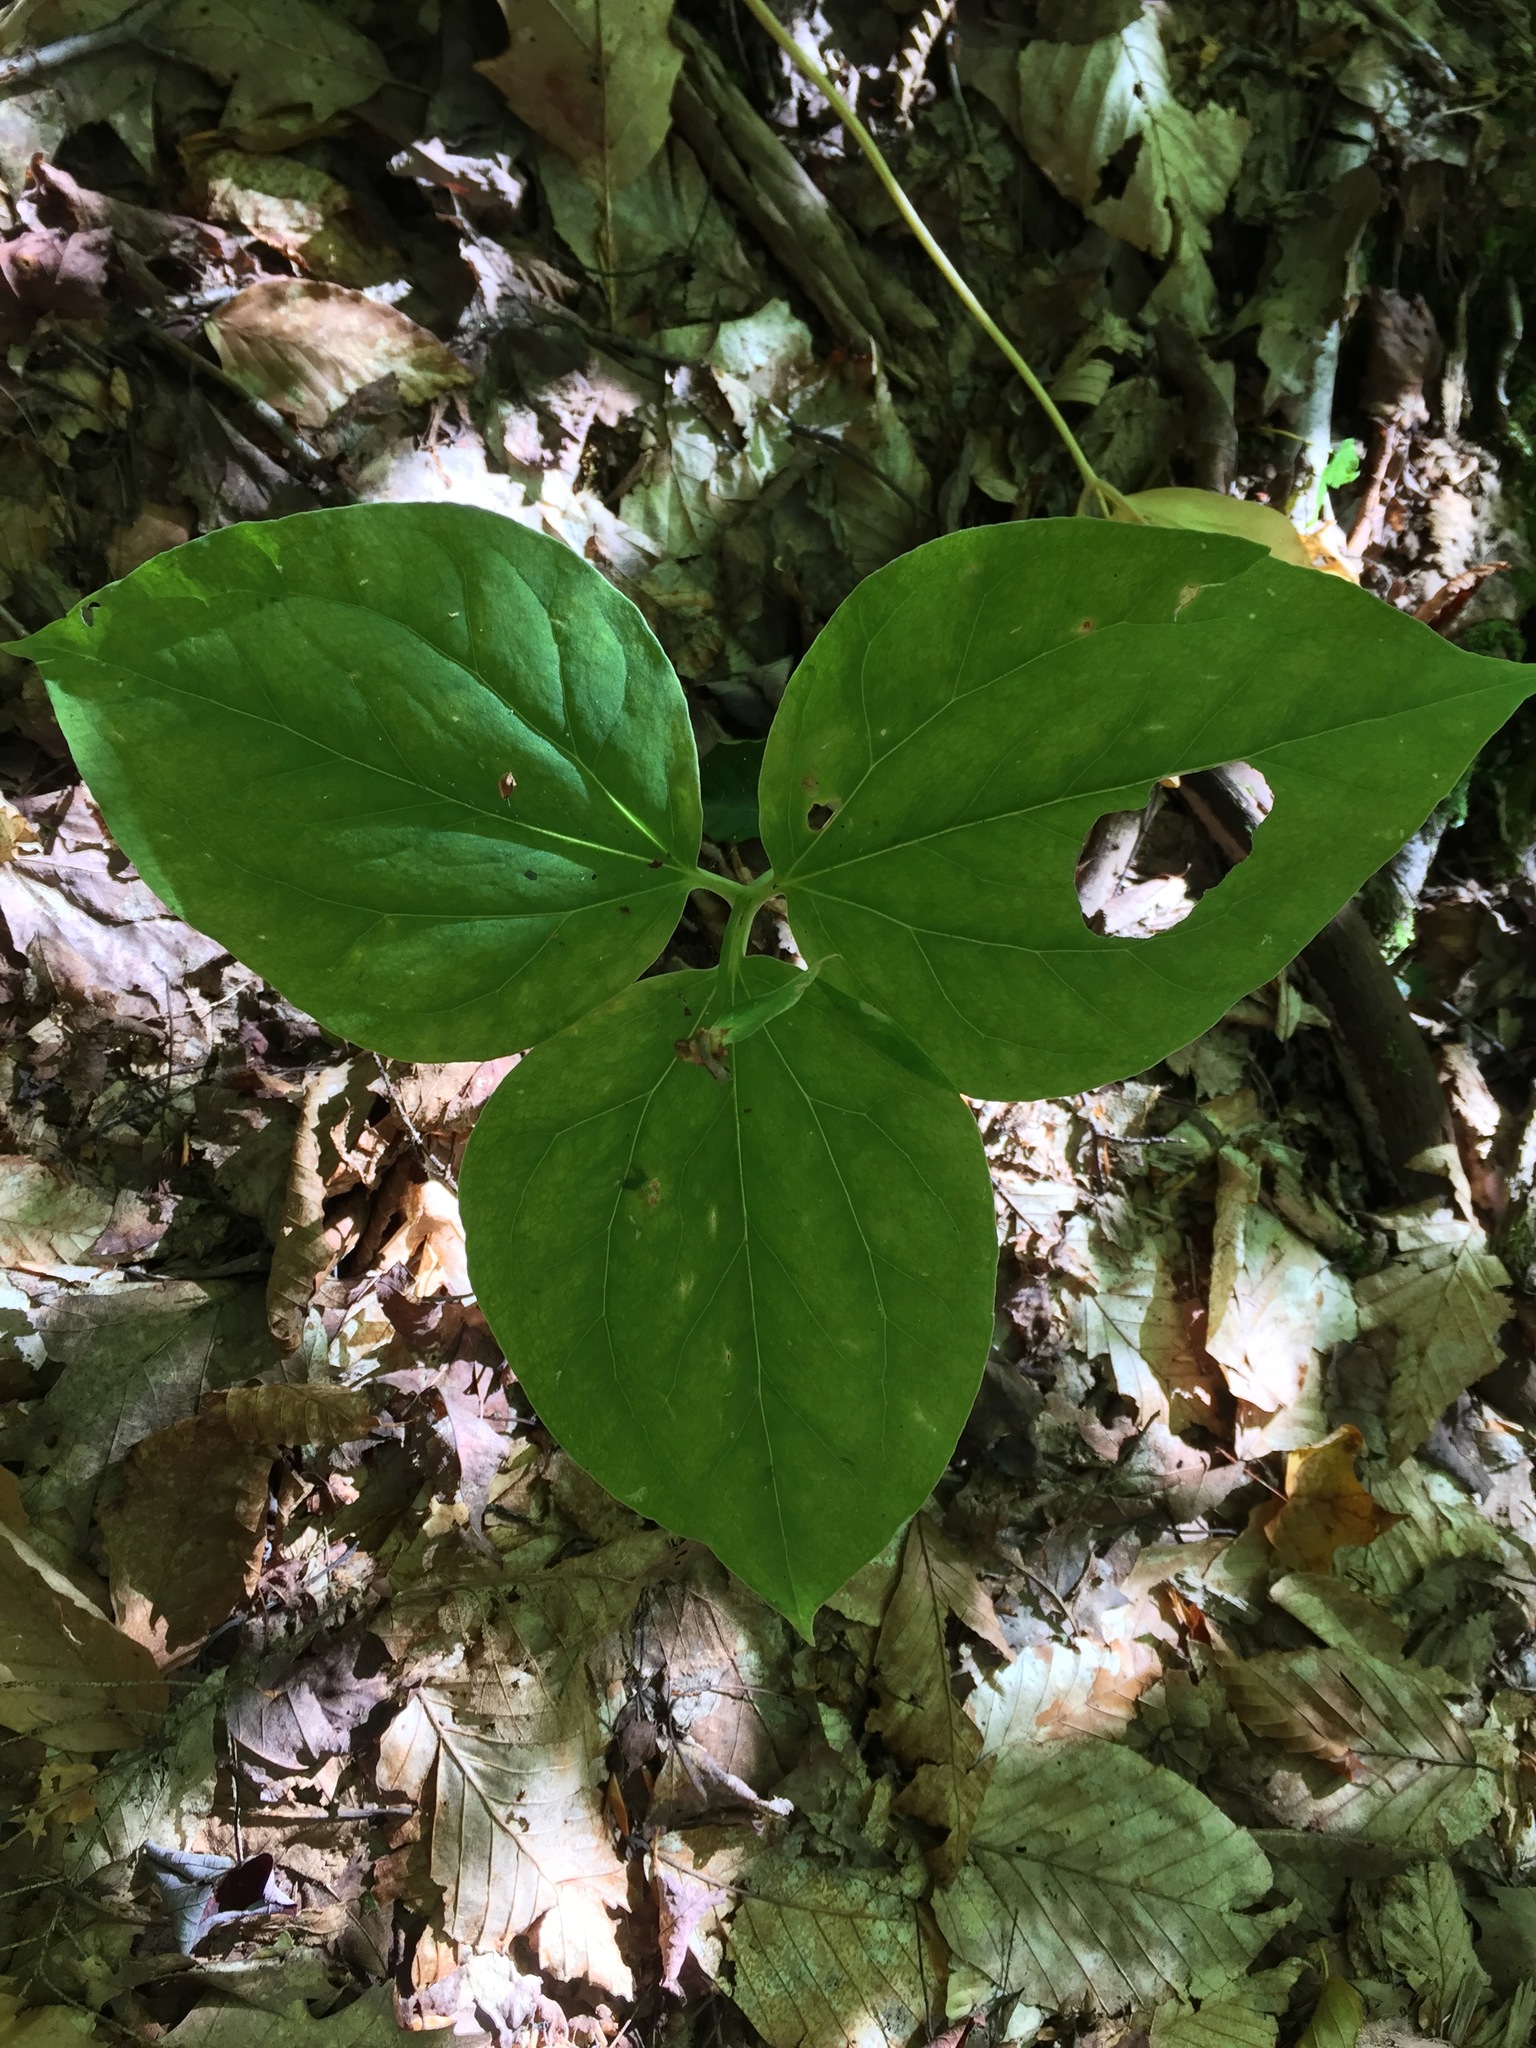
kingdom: Plantae
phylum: Tracheophyta
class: Liliopsida
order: Liliales
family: Melanthiaceae
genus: Trillium
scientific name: Trillium undulatum
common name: Paint trillium
